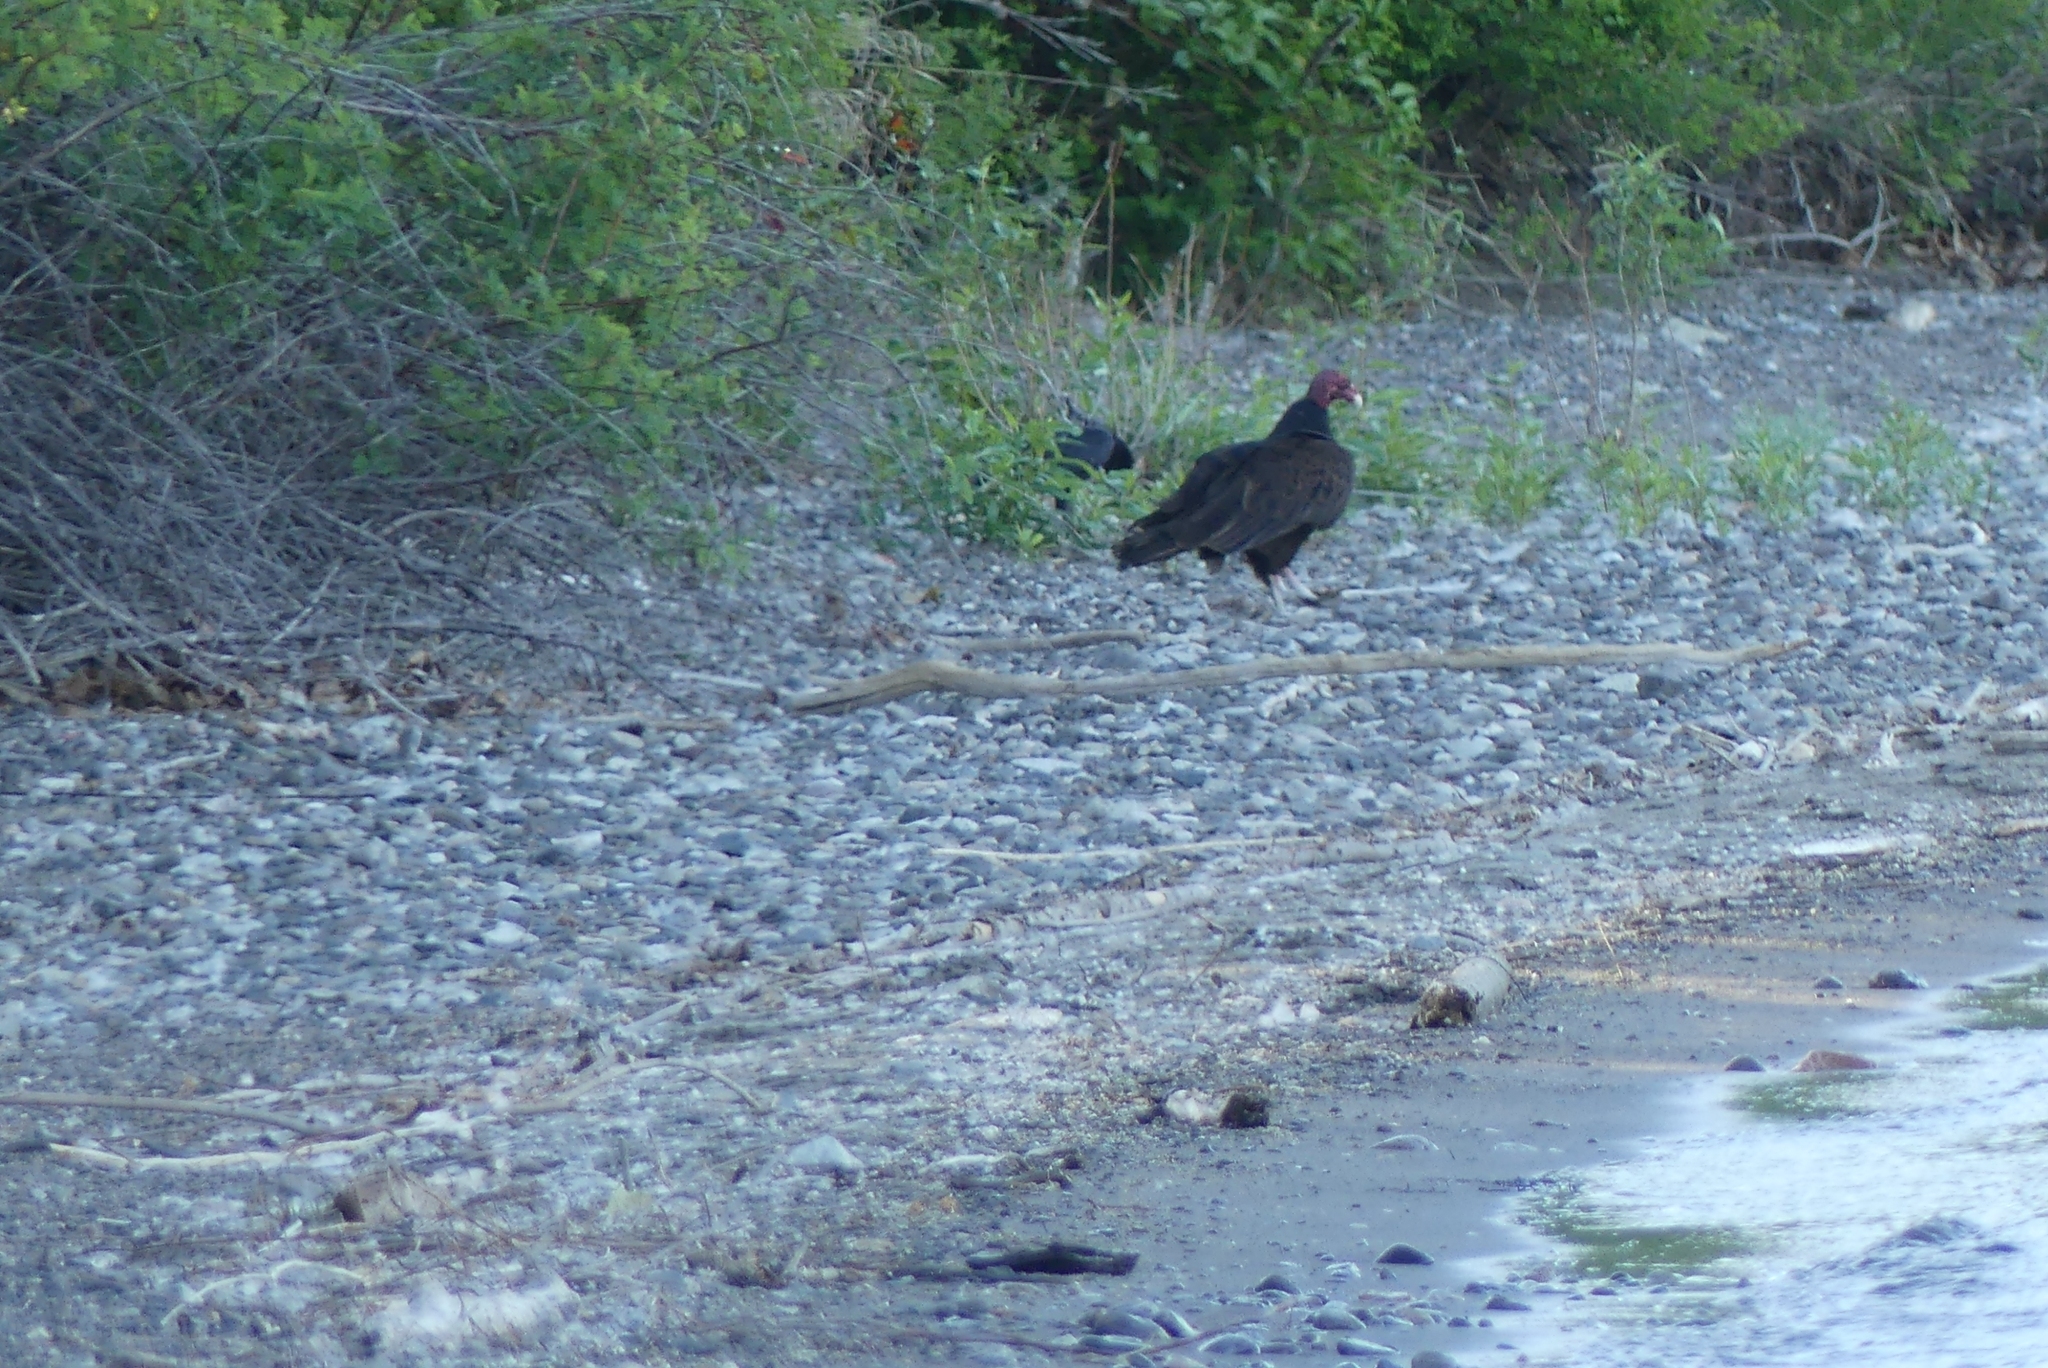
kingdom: Animalia
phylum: Chordata
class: Aves
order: Accipitriformes
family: Cathartidae
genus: Cathartes
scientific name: Cathartes aura
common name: Turkey vulture
